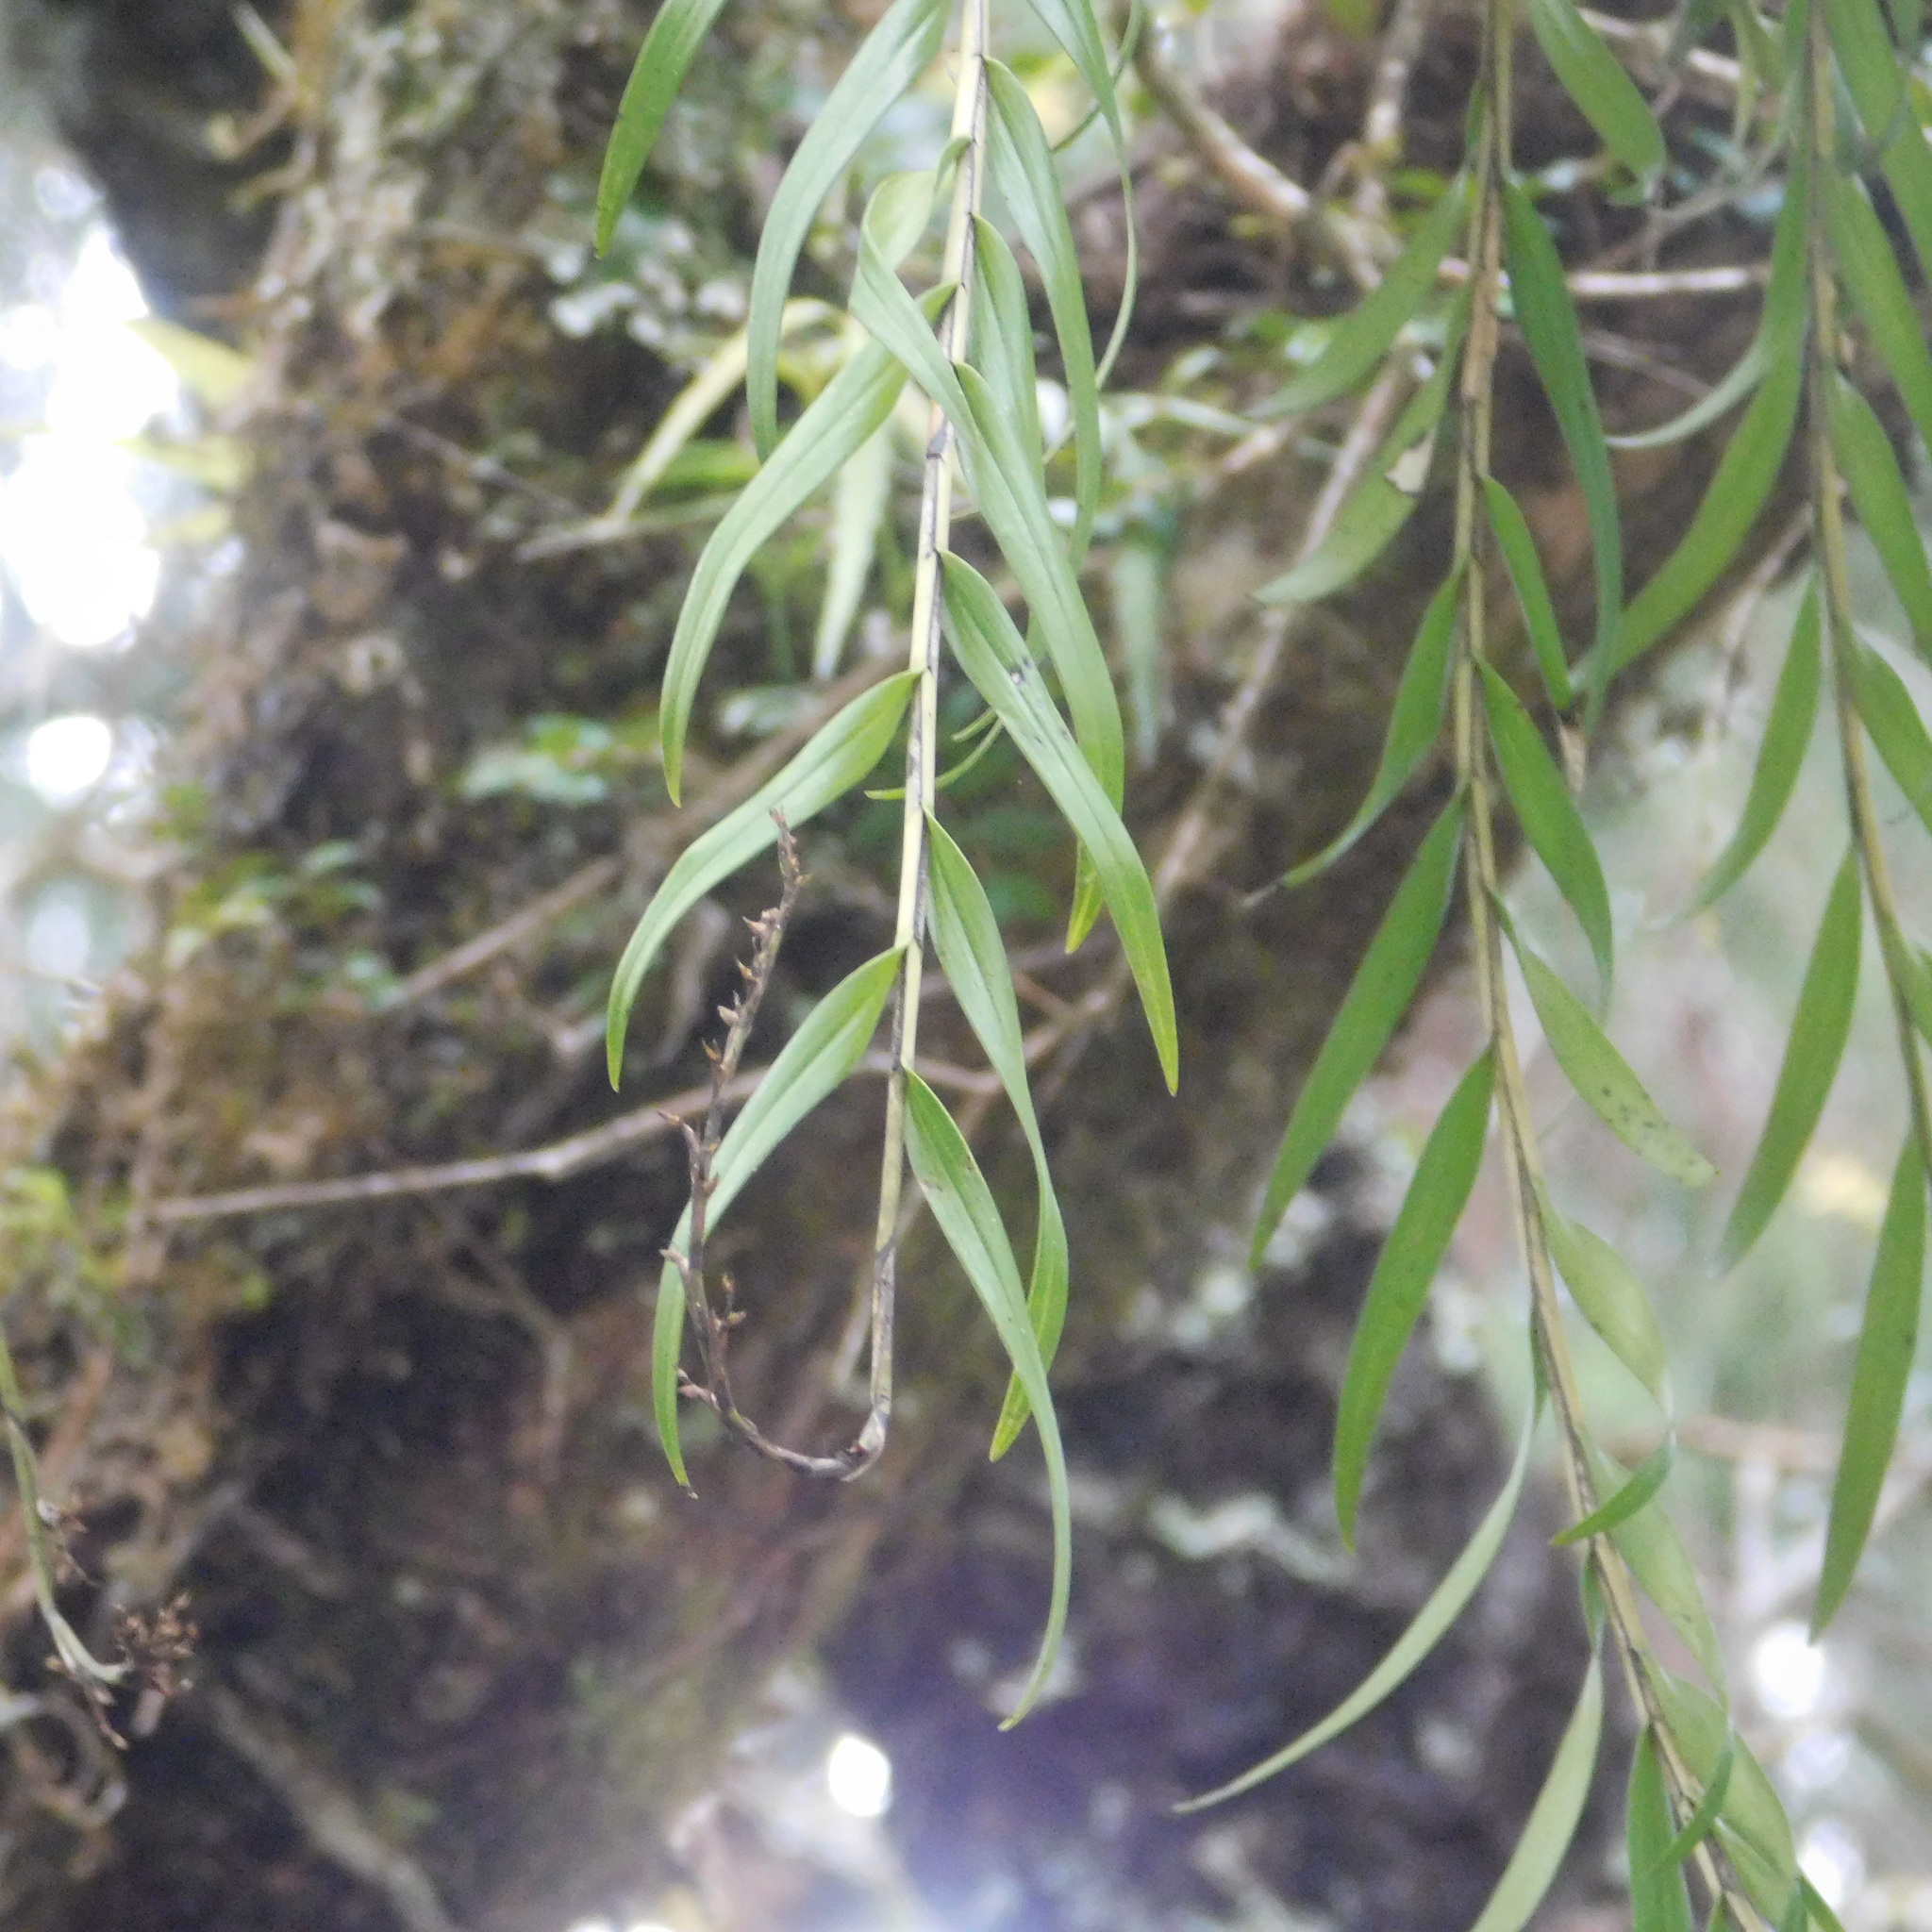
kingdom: Plantae
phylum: Tracheophyta
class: Liliopsida
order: Asparagales
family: Orchidaceae
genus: Earina
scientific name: Earina autumnalis
